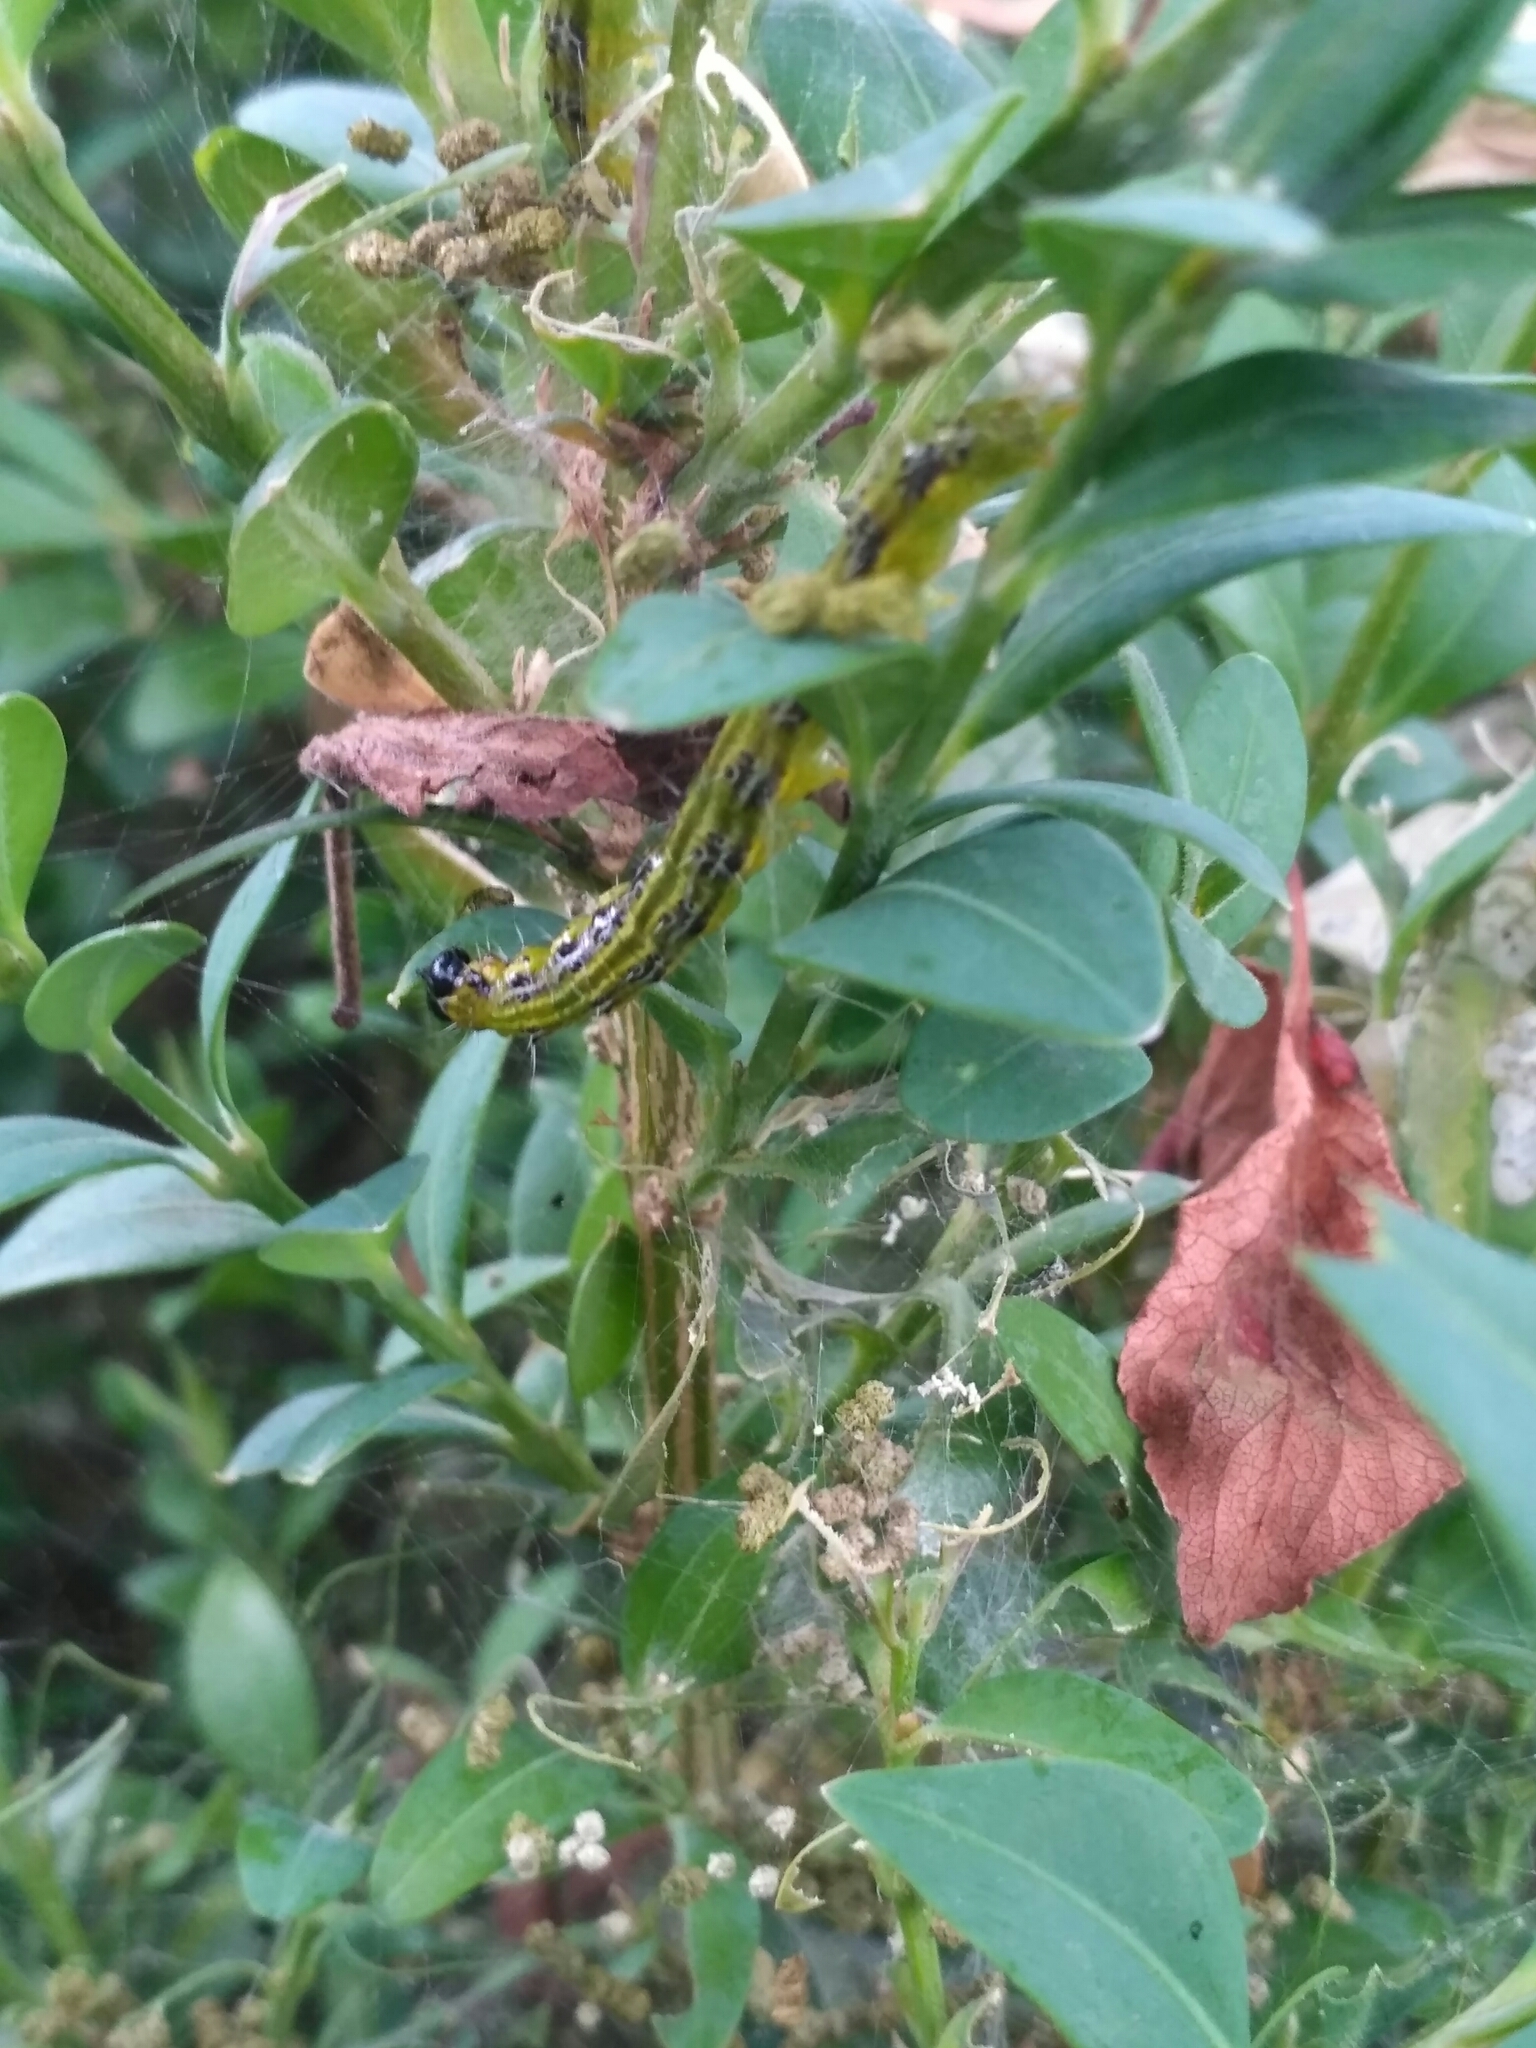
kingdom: Animalia
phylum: Arthropoda
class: Insecta
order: Lepidoptera
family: Crambidae
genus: Cydalima
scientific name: Cydalima perspectalis
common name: Box tree moth
